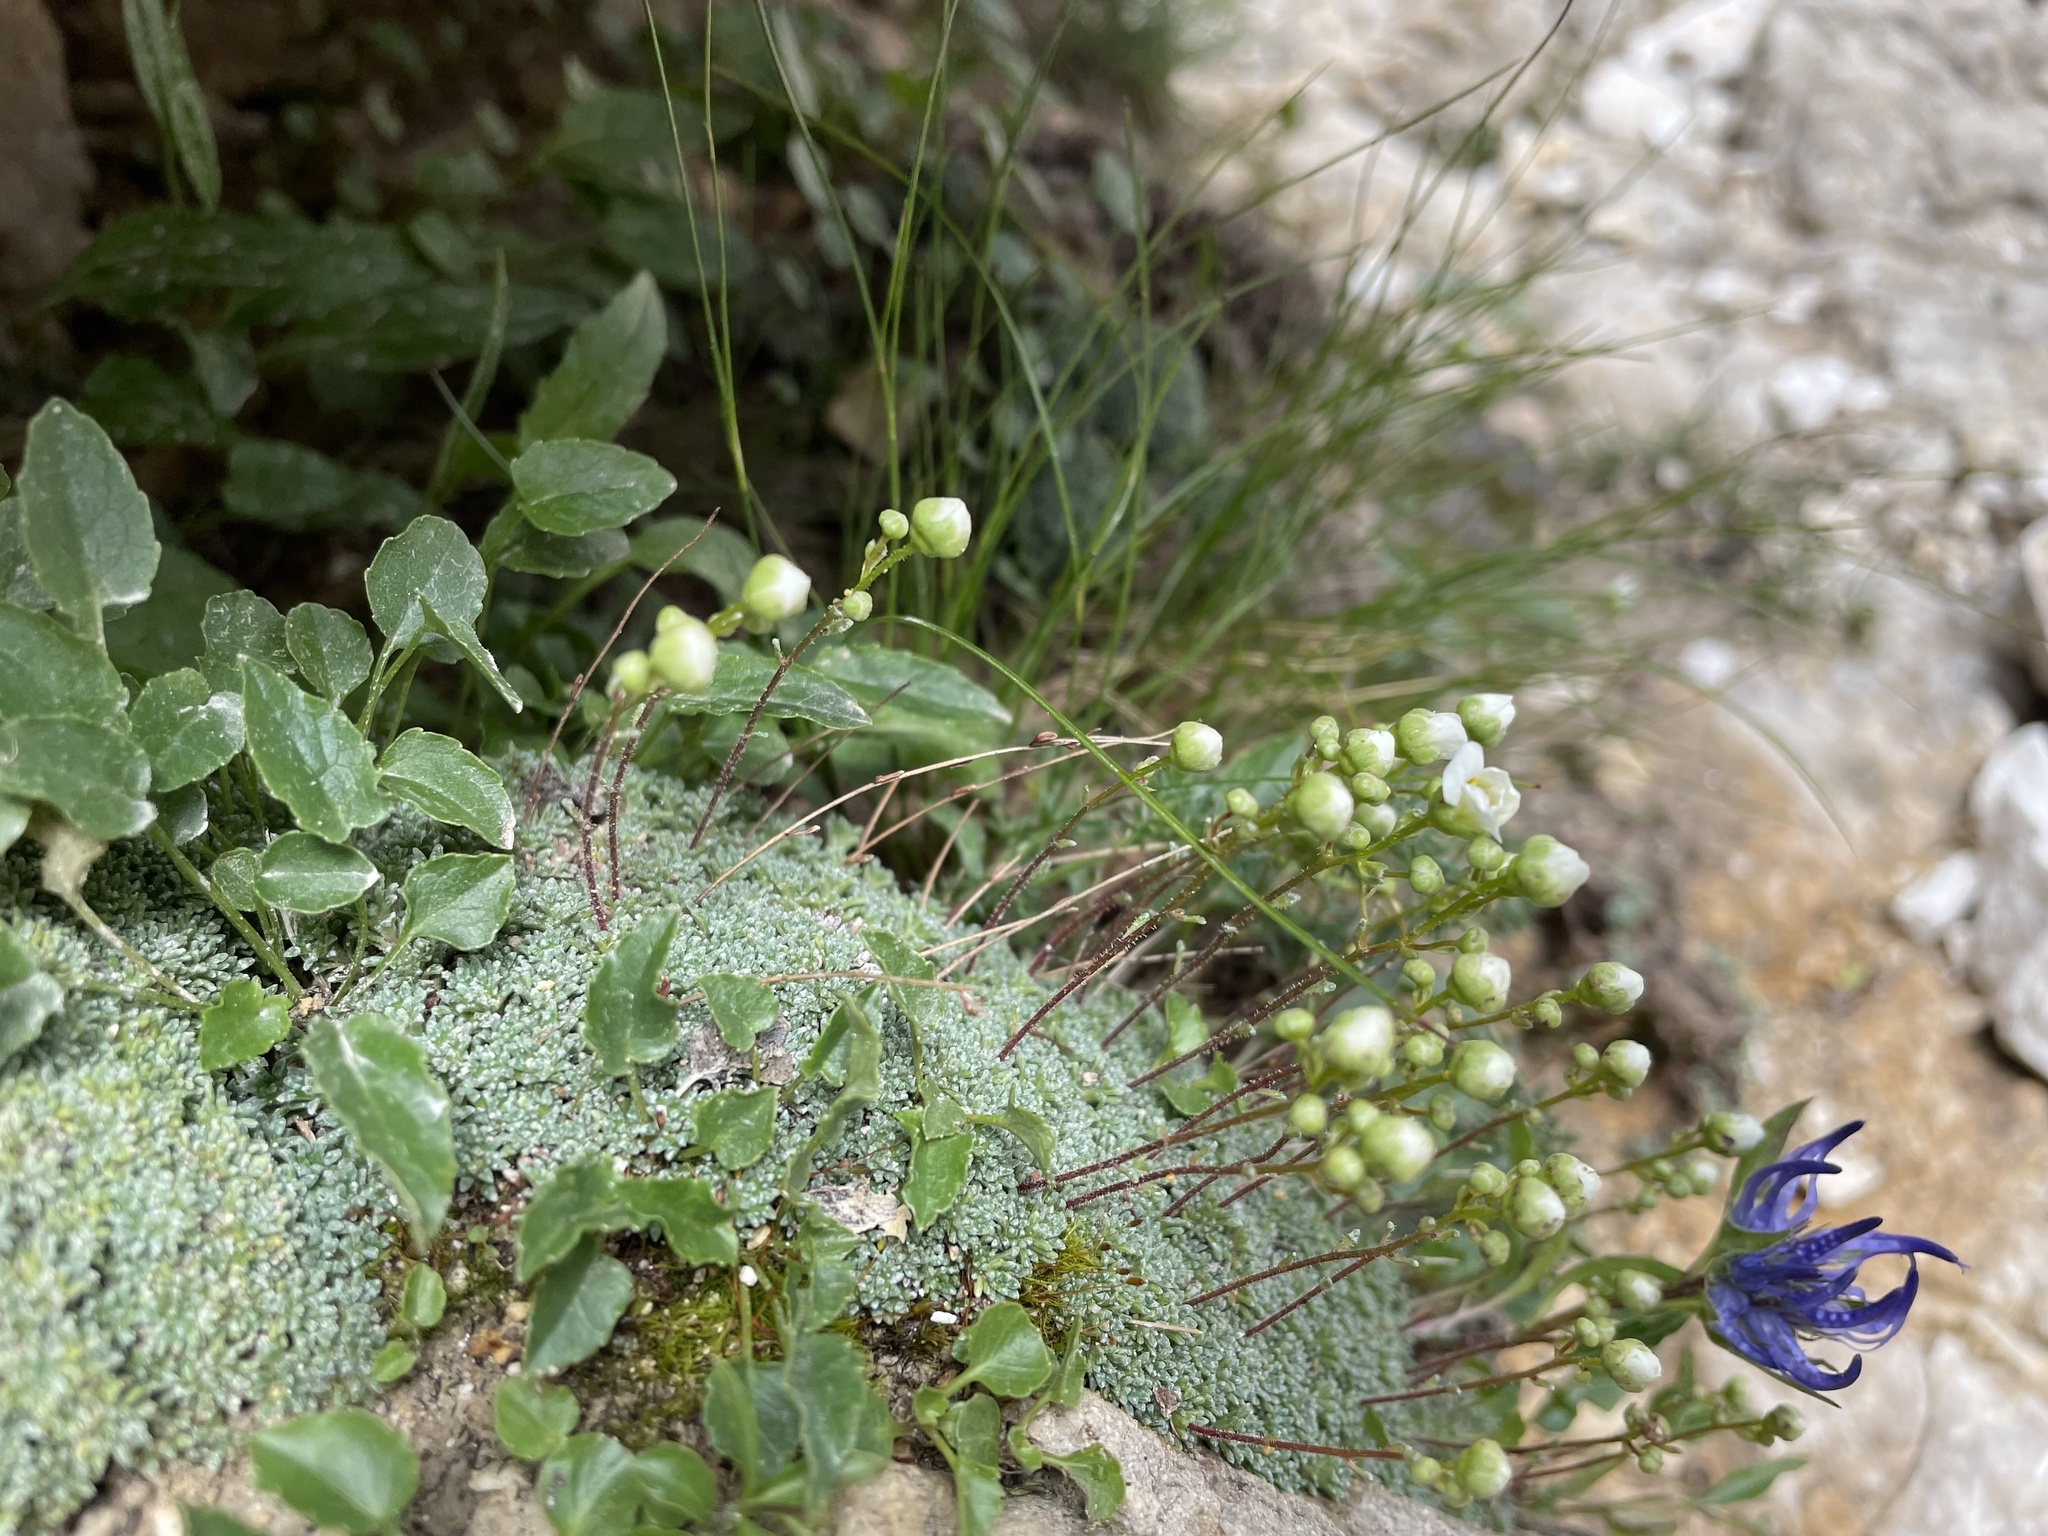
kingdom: Plantae
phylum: Tracheophyta
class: Magnoliopsida
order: Saxifragales
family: Saxifragaceae
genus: Saxifraga
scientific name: Saxifraga squarrosa
